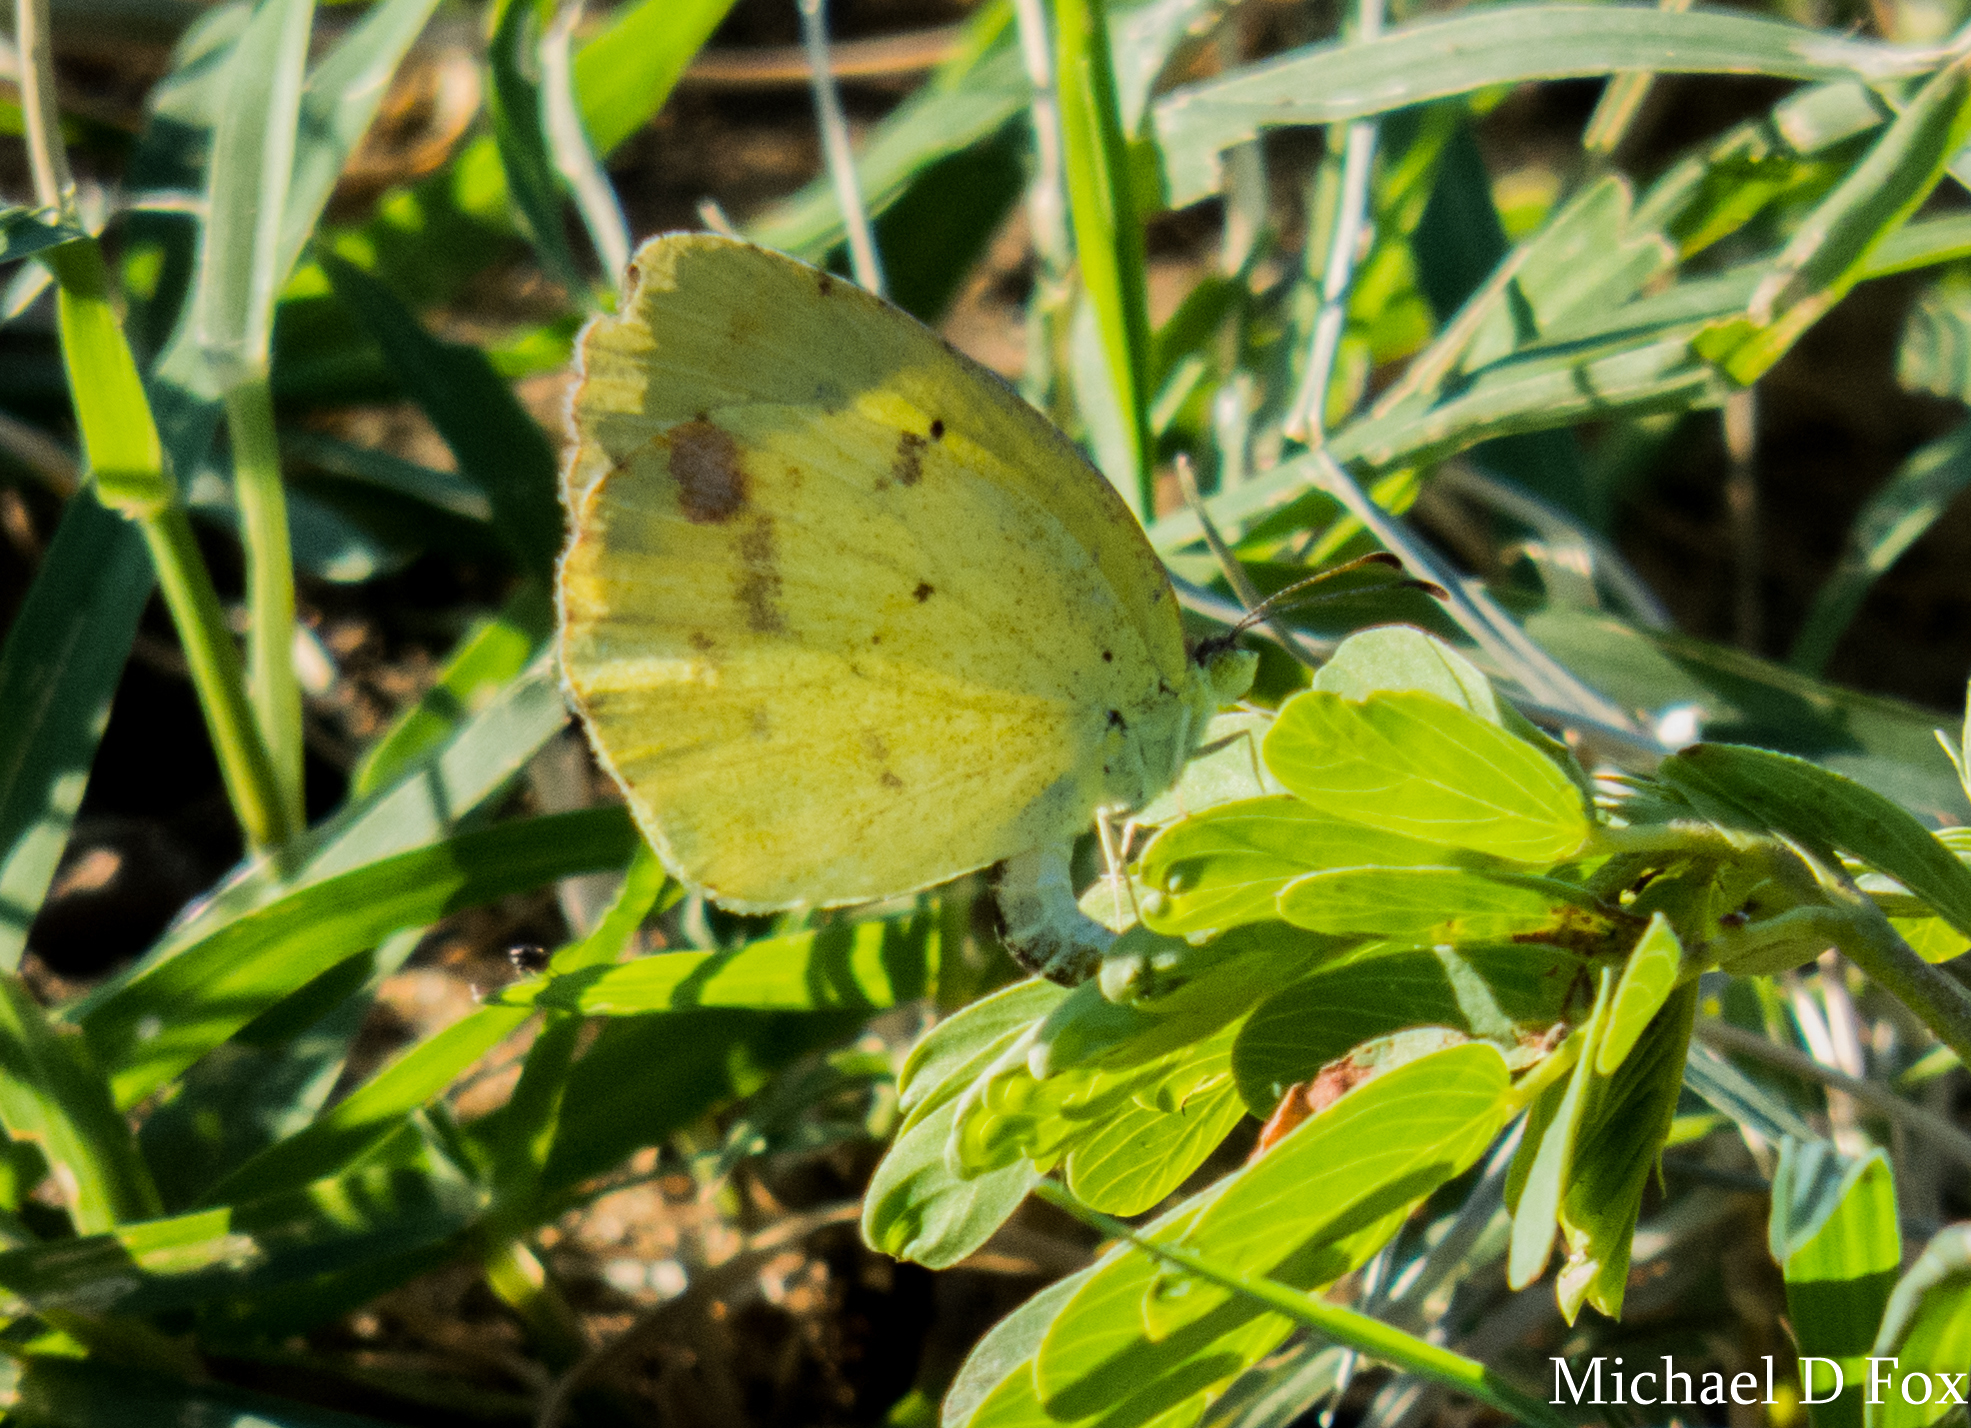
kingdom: Animalia
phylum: Arthropoda
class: Insecta
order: Lepidoptera
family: Pieridae
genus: Pyrisitia
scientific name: Pyrisitia lisa
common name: Little yellow
